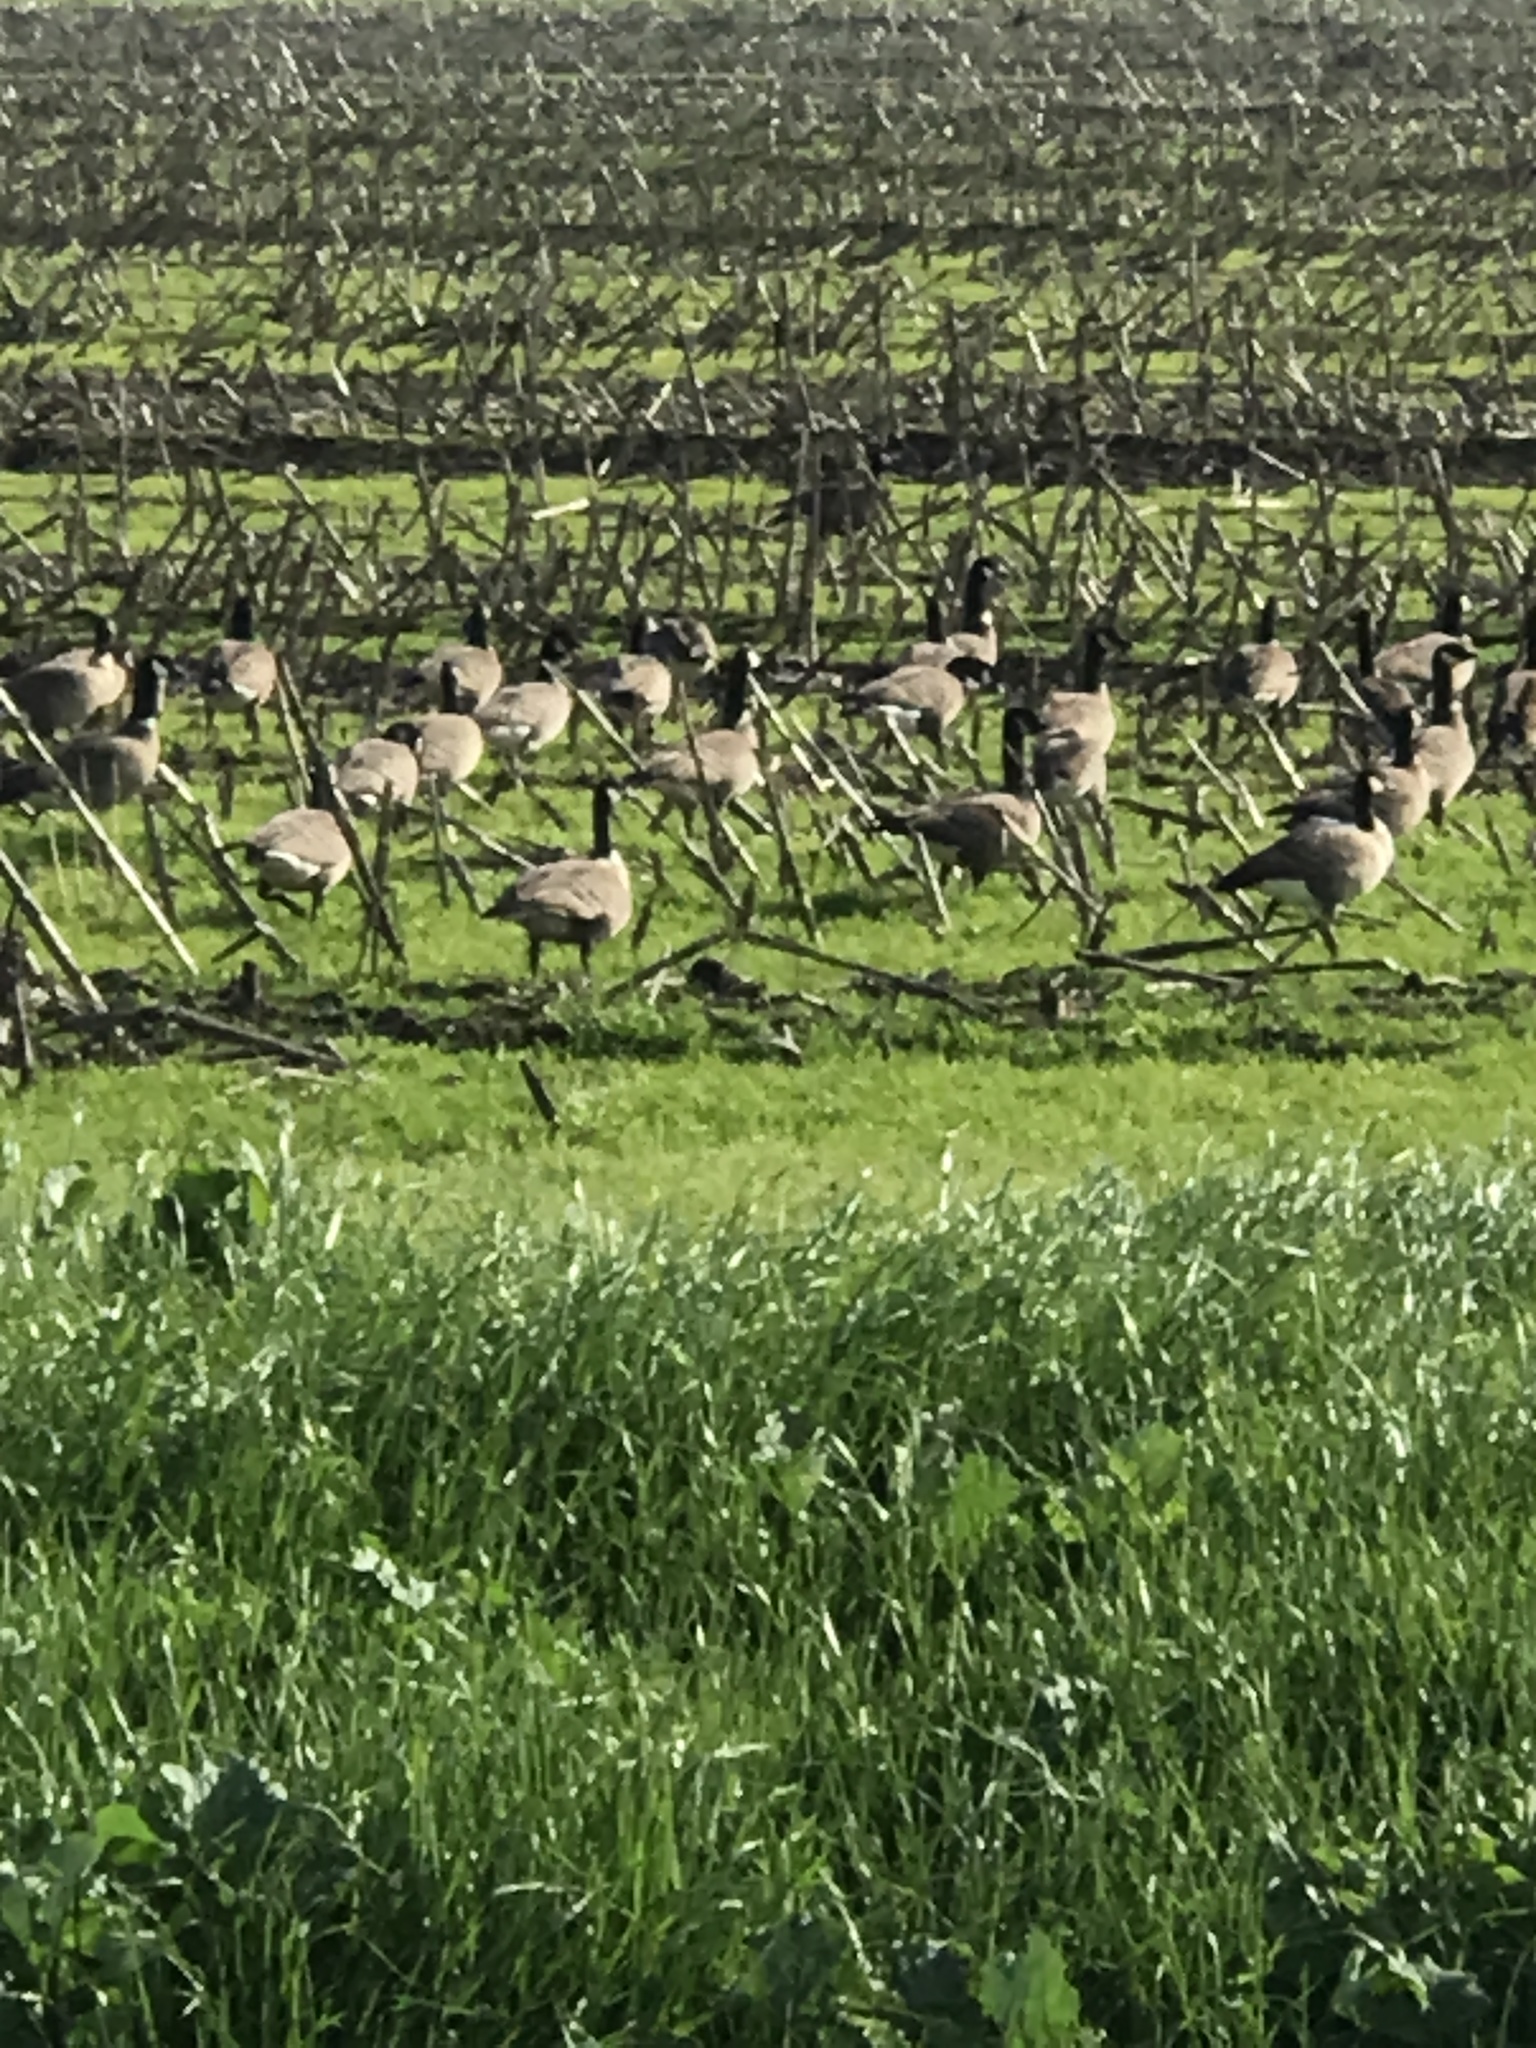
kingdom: Animalia
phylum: Chordata
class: Aves
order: Anseriformes
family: Anatidae
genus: Branta
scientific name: Branta hutchinsii
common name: Cackling goose
